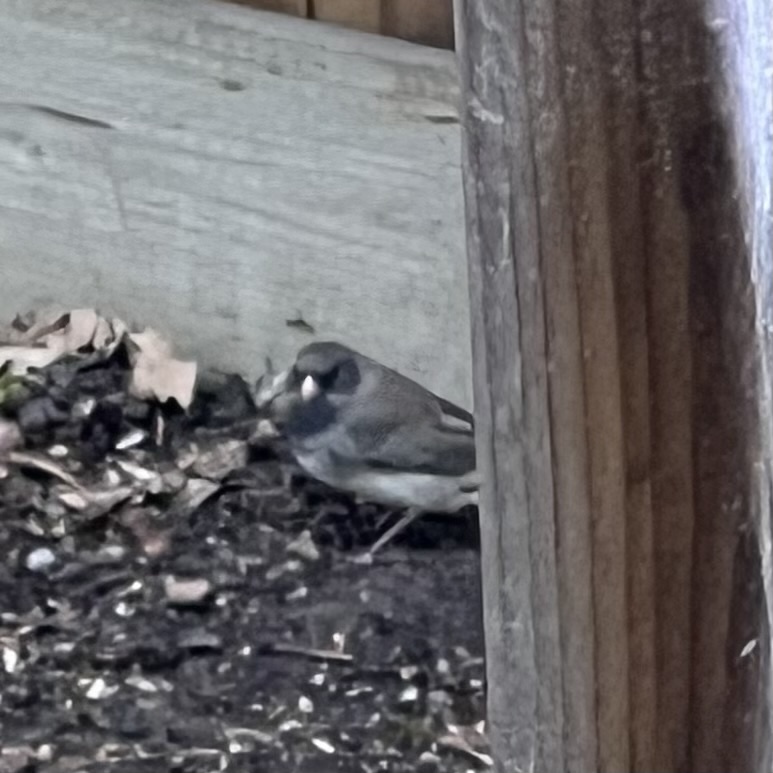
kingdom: Animalia
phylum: Chordata
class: Aves
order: Passeriformes
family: Passerellidae
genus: Junco
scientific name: Junco hyemalis
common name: Dark-eyed junco
